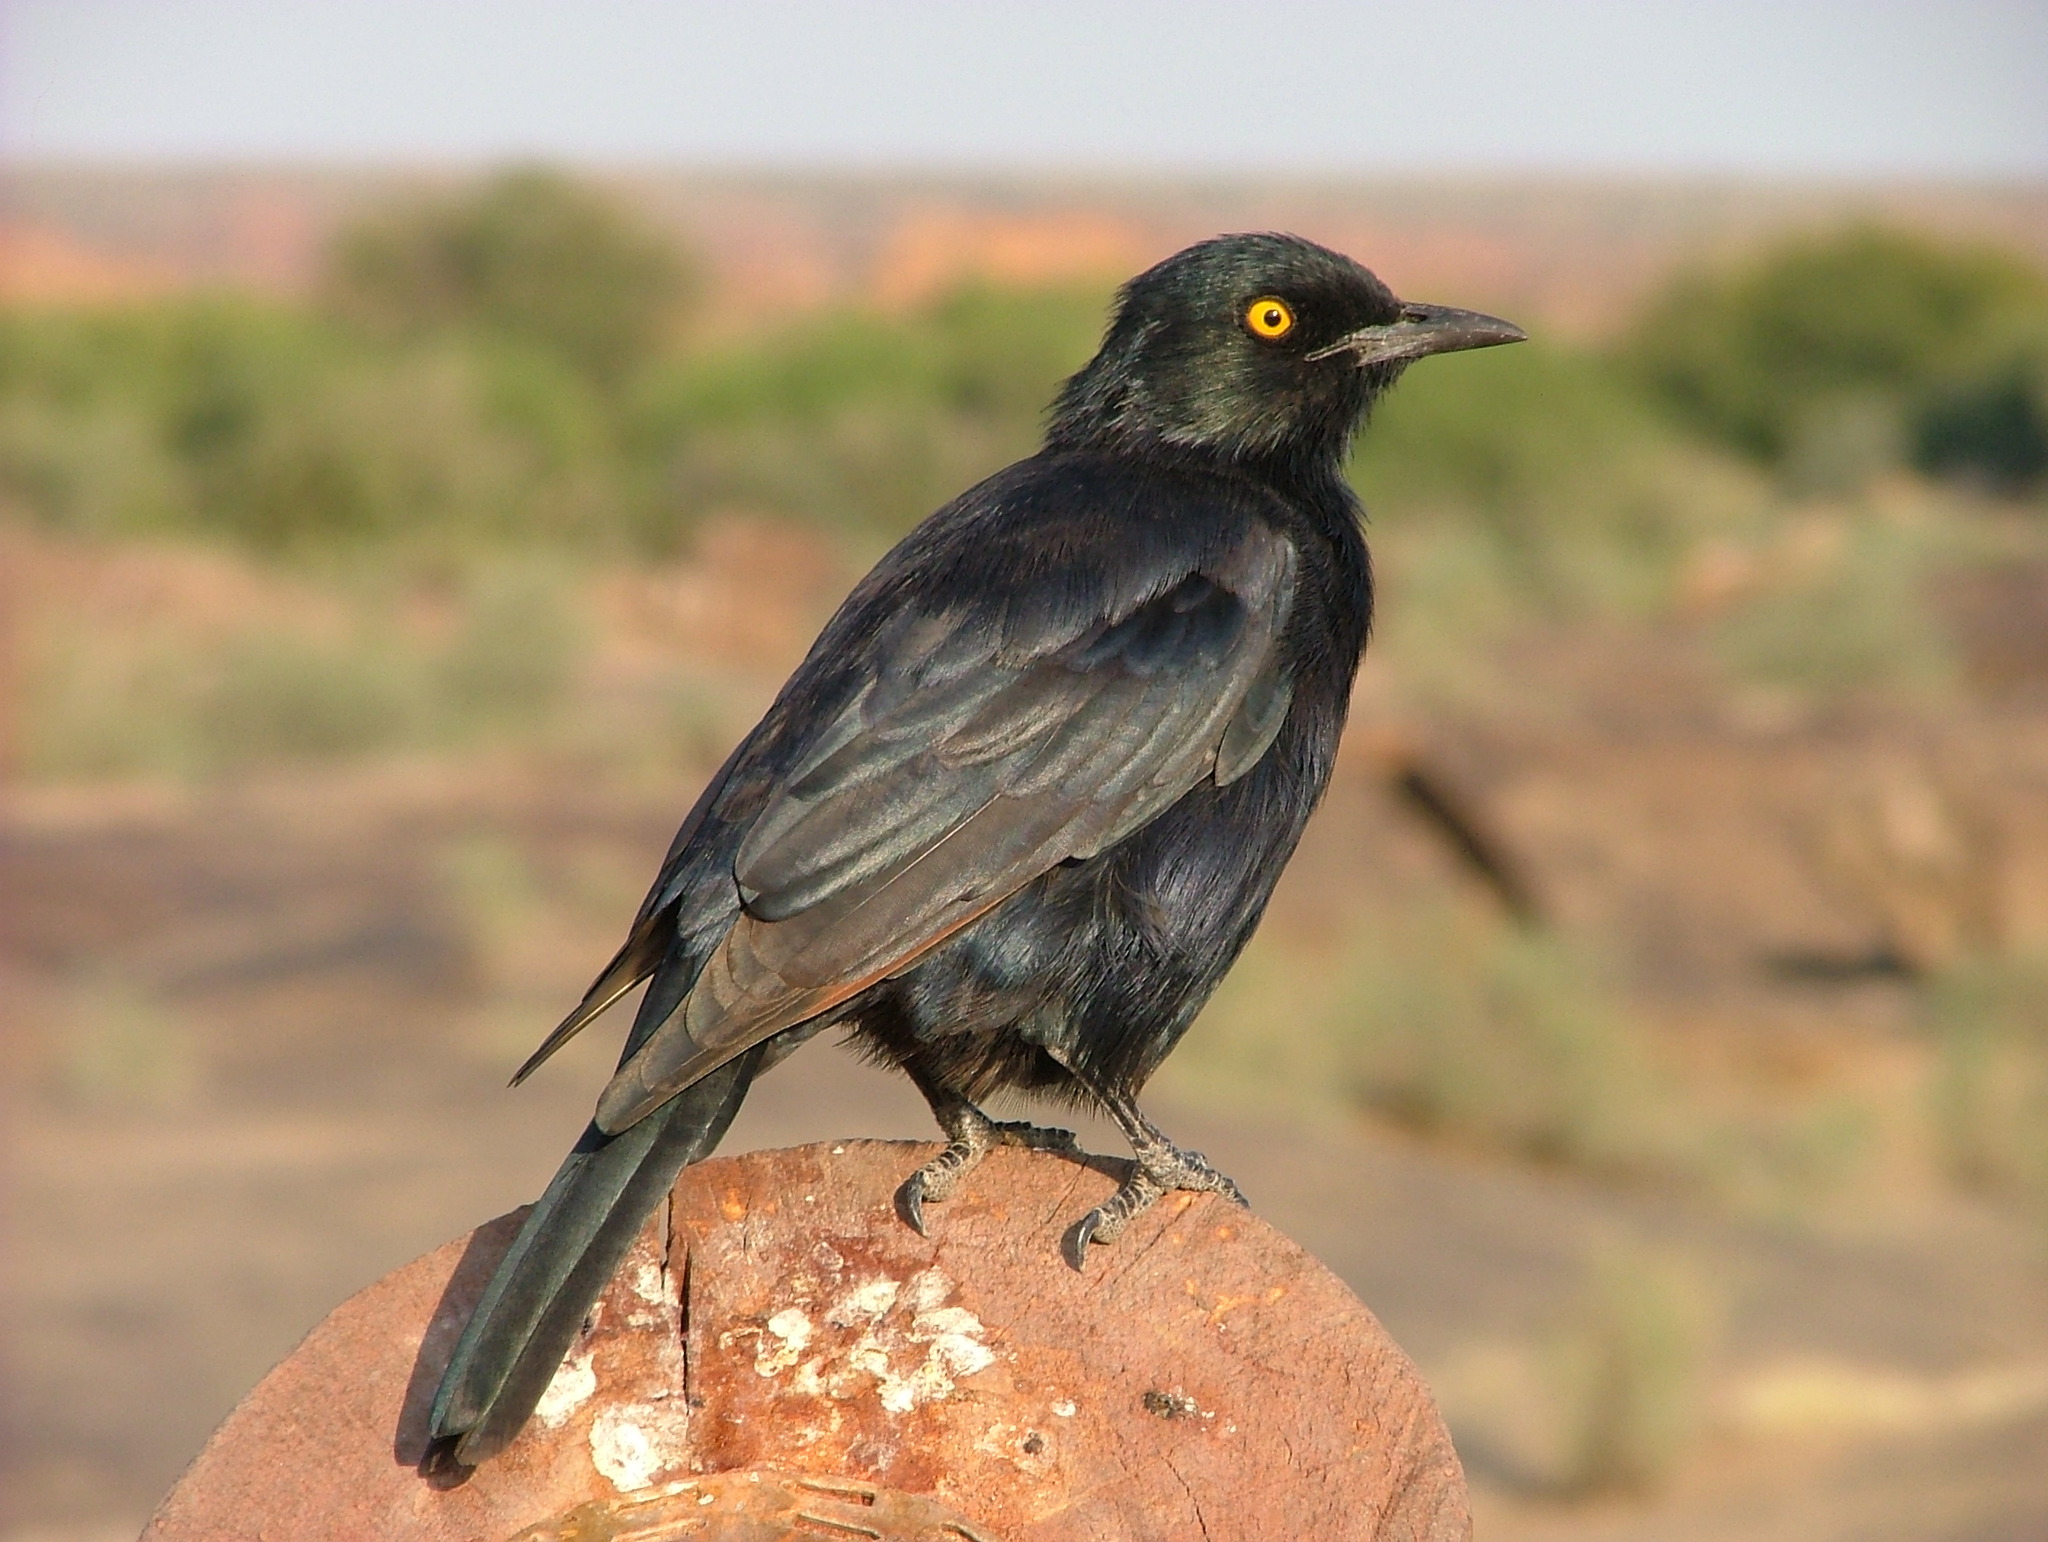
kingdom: Animalia
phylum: Chordata
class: Aves
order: Passeriformes
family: Sturnidae
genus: Onychognathus
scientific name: Onychognathus nabouroup
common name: Pale-winged starling
